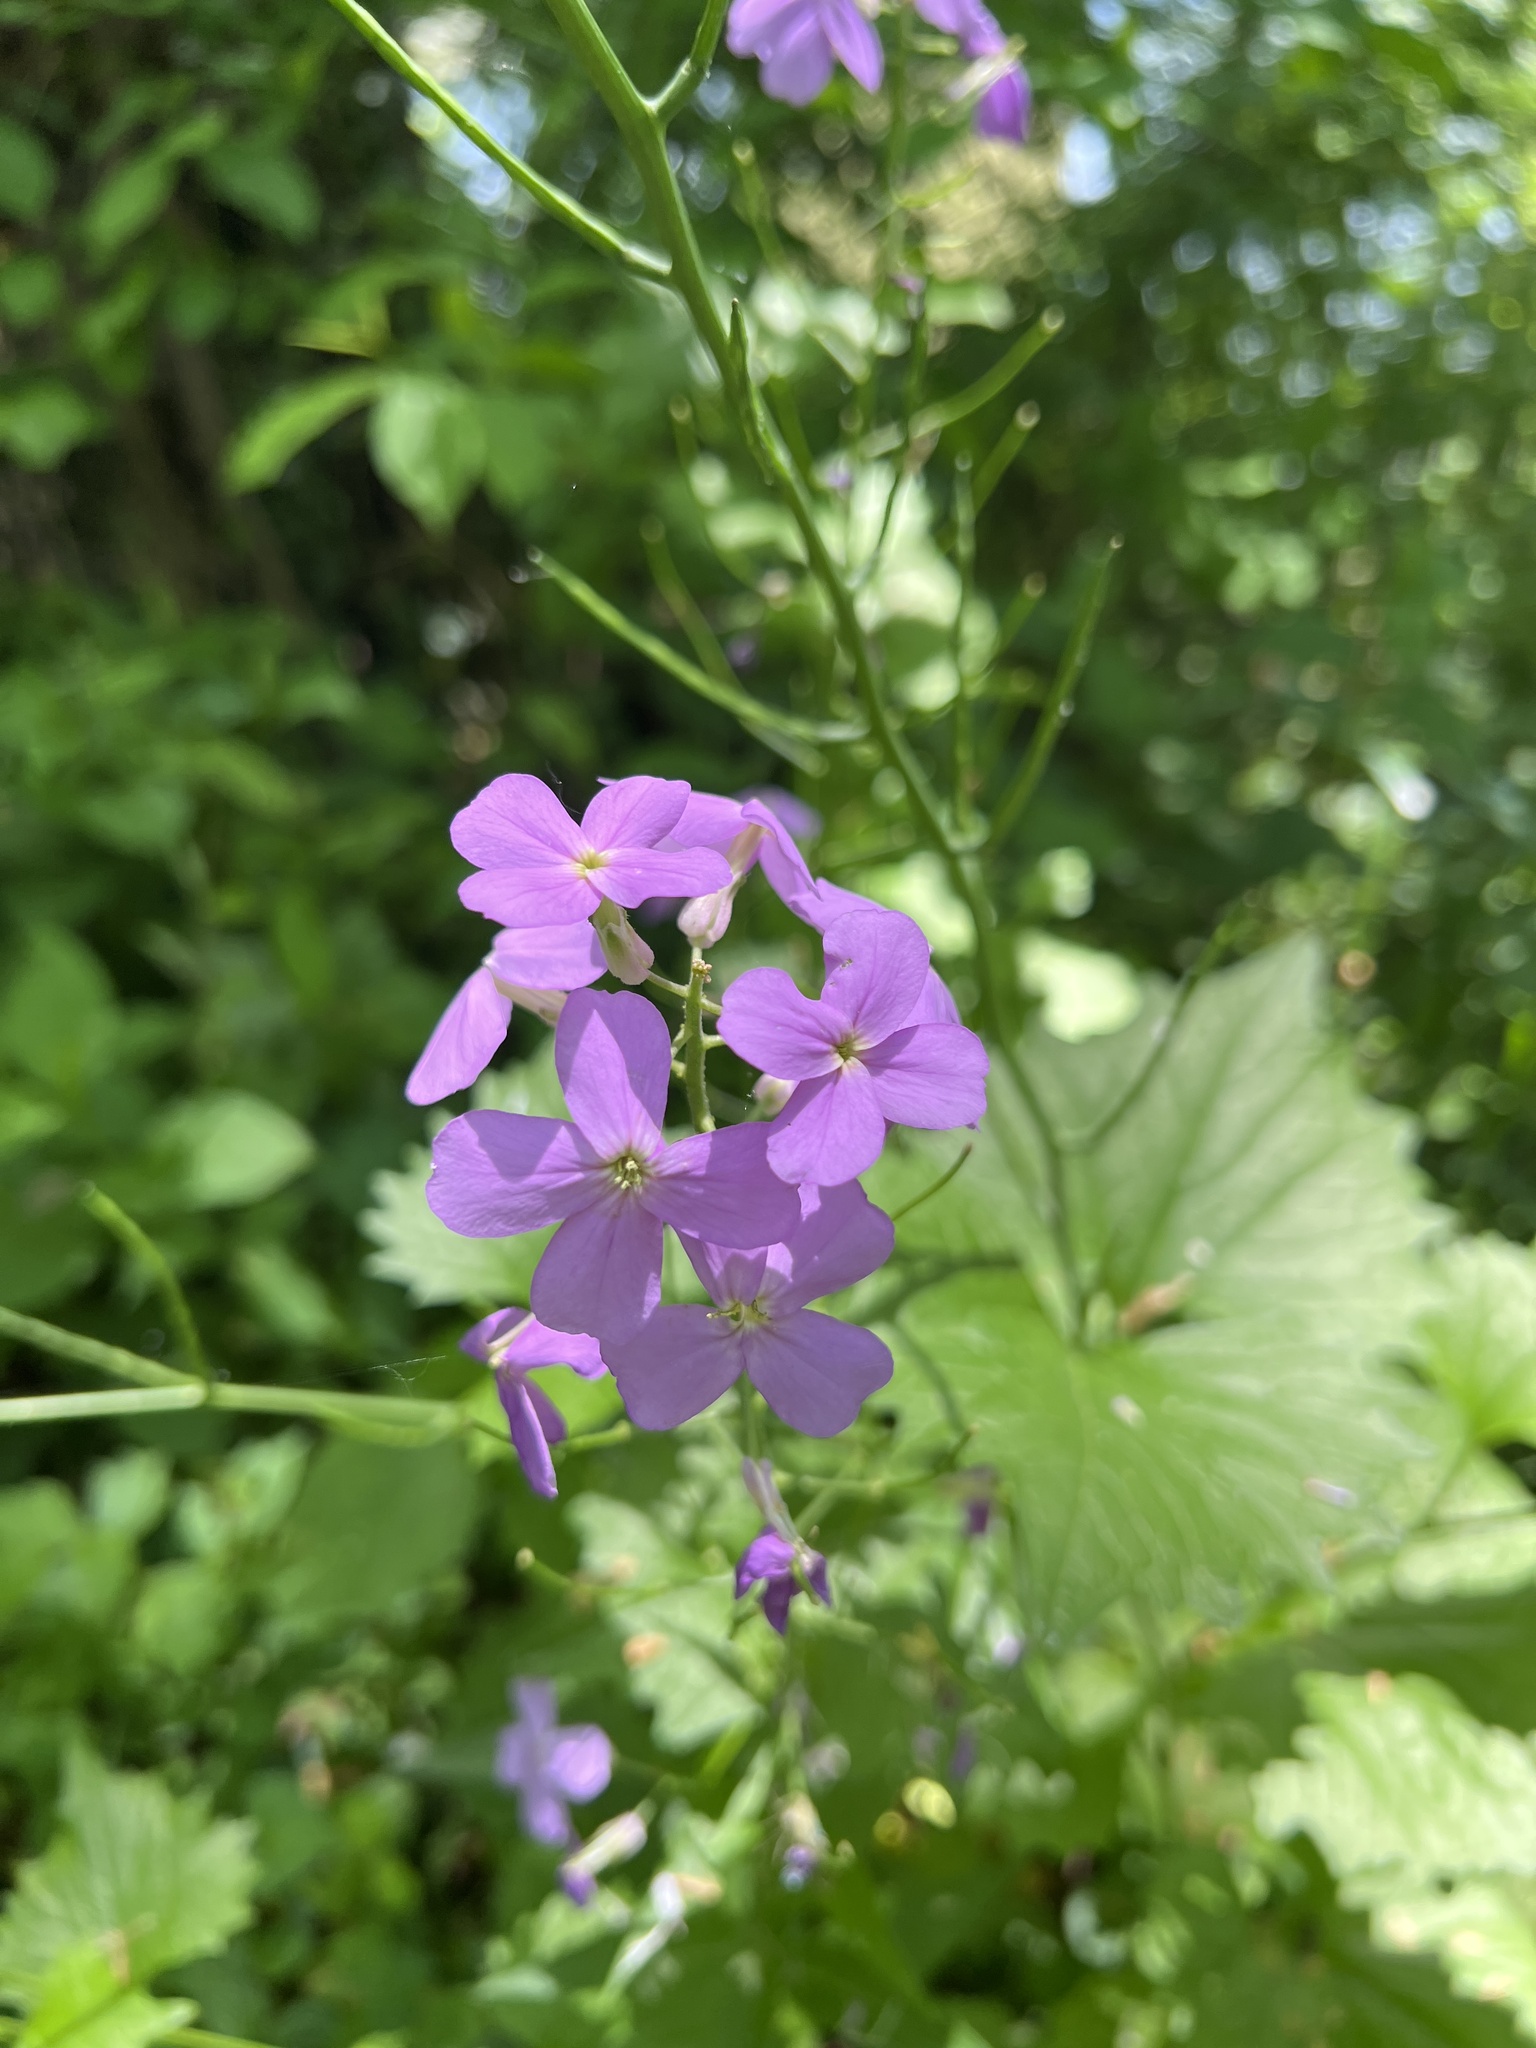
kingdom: Plantae
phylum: Tracheophyta
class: Magnoliopsida
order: Brassicales
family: Brassicaceae
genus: Hesperis
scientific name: Hesperis matronalis
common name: Dame's-violet
